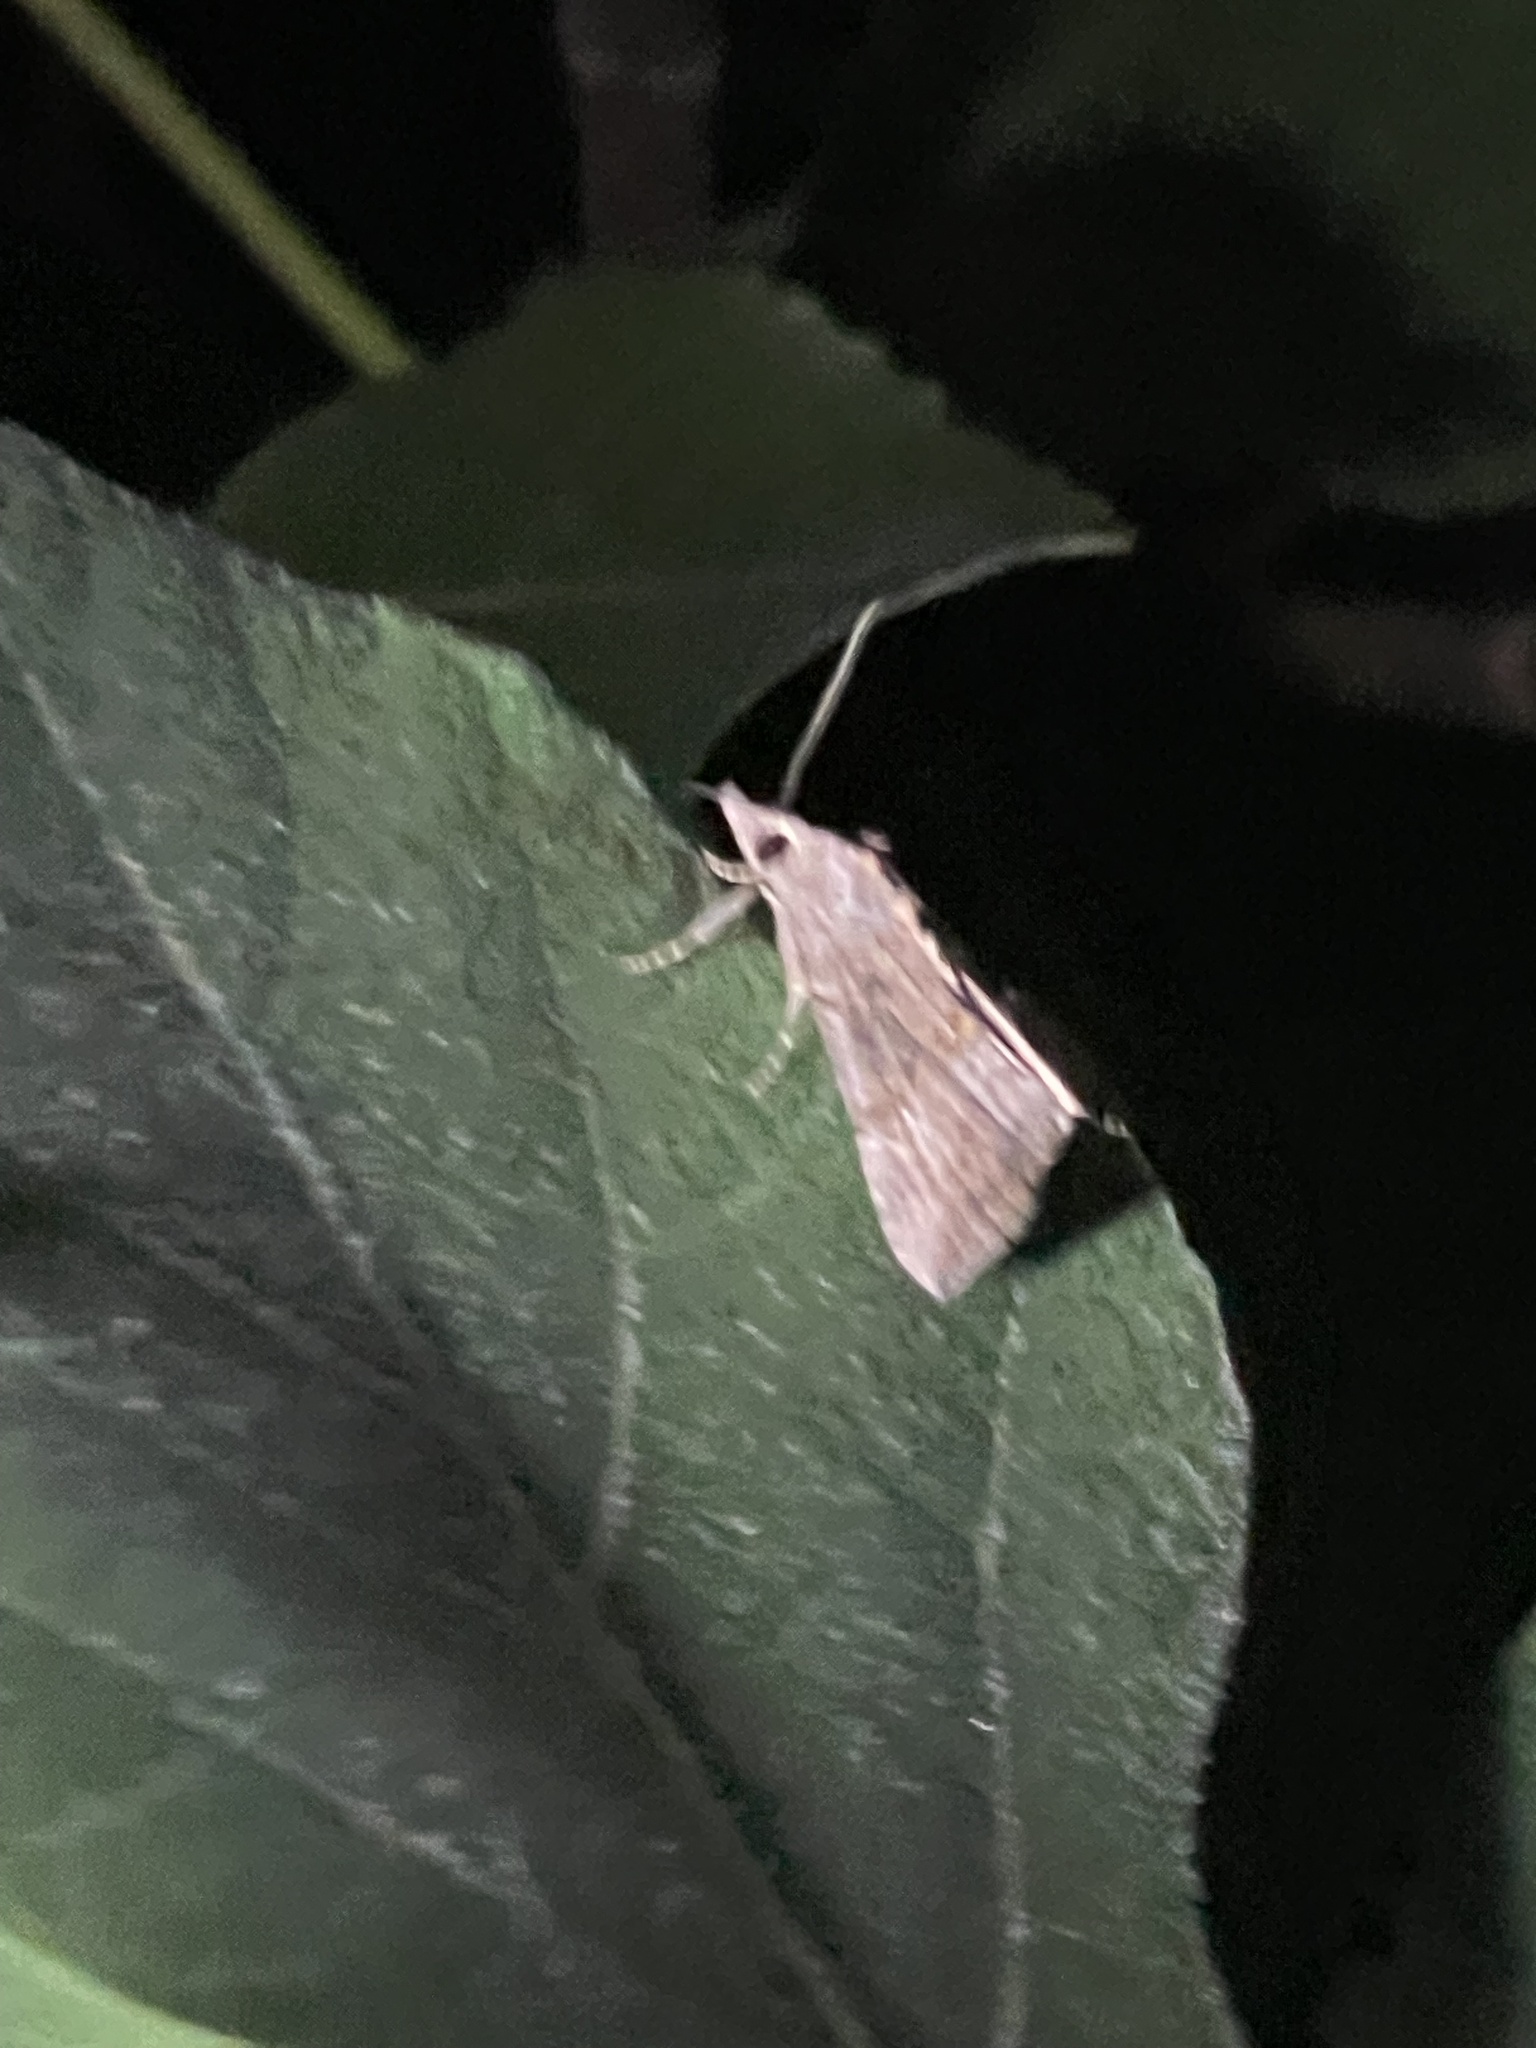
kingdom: Animalia
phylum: Arthropoda
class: Insecta
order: Lepidoptera
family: Erebidae
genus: Hypena
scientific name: Hypena scabra
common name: Green cloverworm
